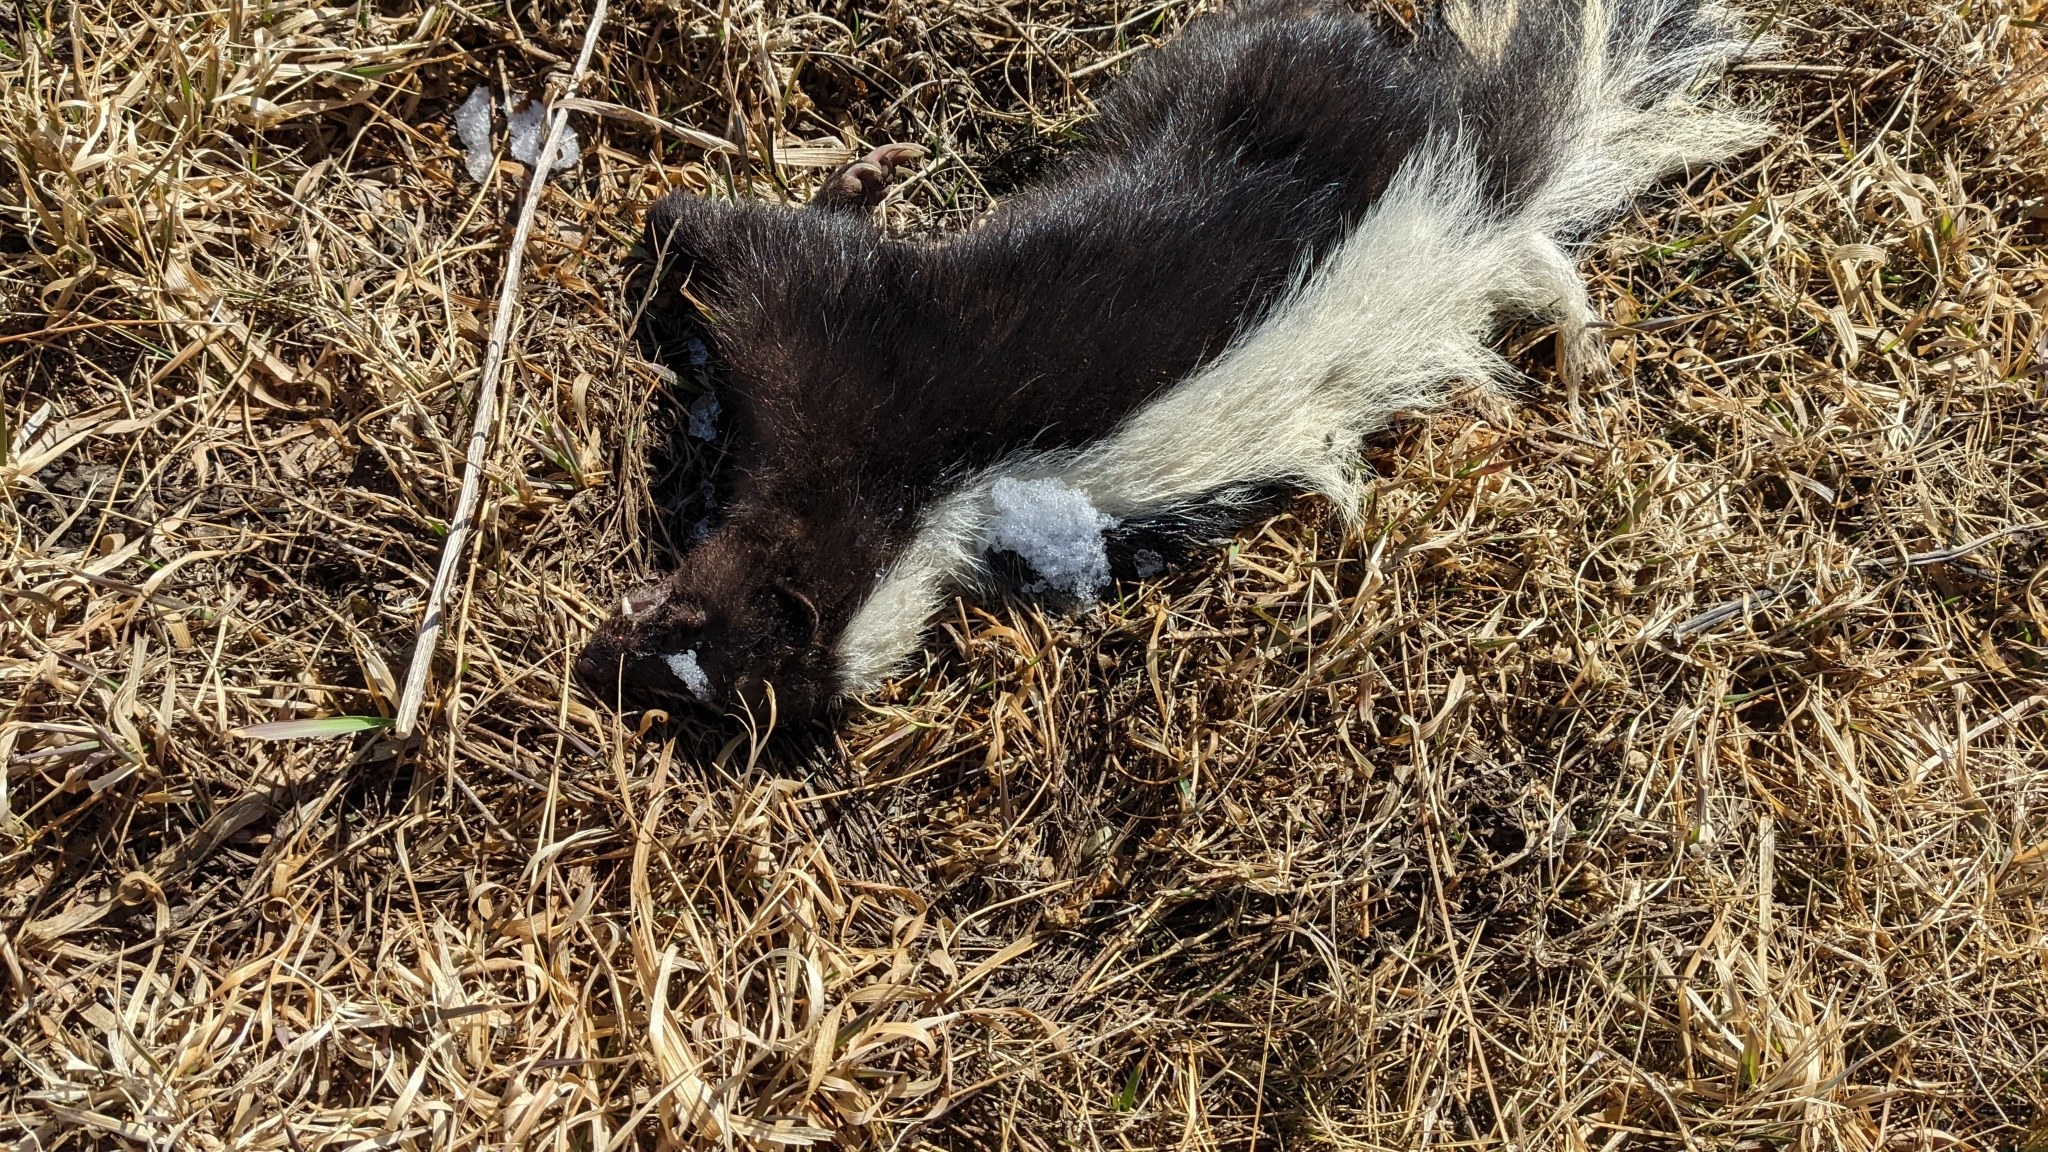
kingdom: Animalia
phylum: Chordata
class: Mammalia
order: Carnivora
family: Mephitidae
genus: Mephitis
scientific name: Mephitis mephitis
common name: Striped skunk
